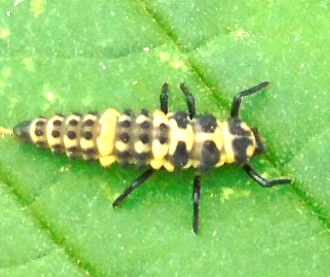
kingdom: Animalia
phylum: Arthropoda
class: Insecta
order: Coleoptera
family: Coccinellidae
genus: Coccinellina
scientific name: Coccinellina
